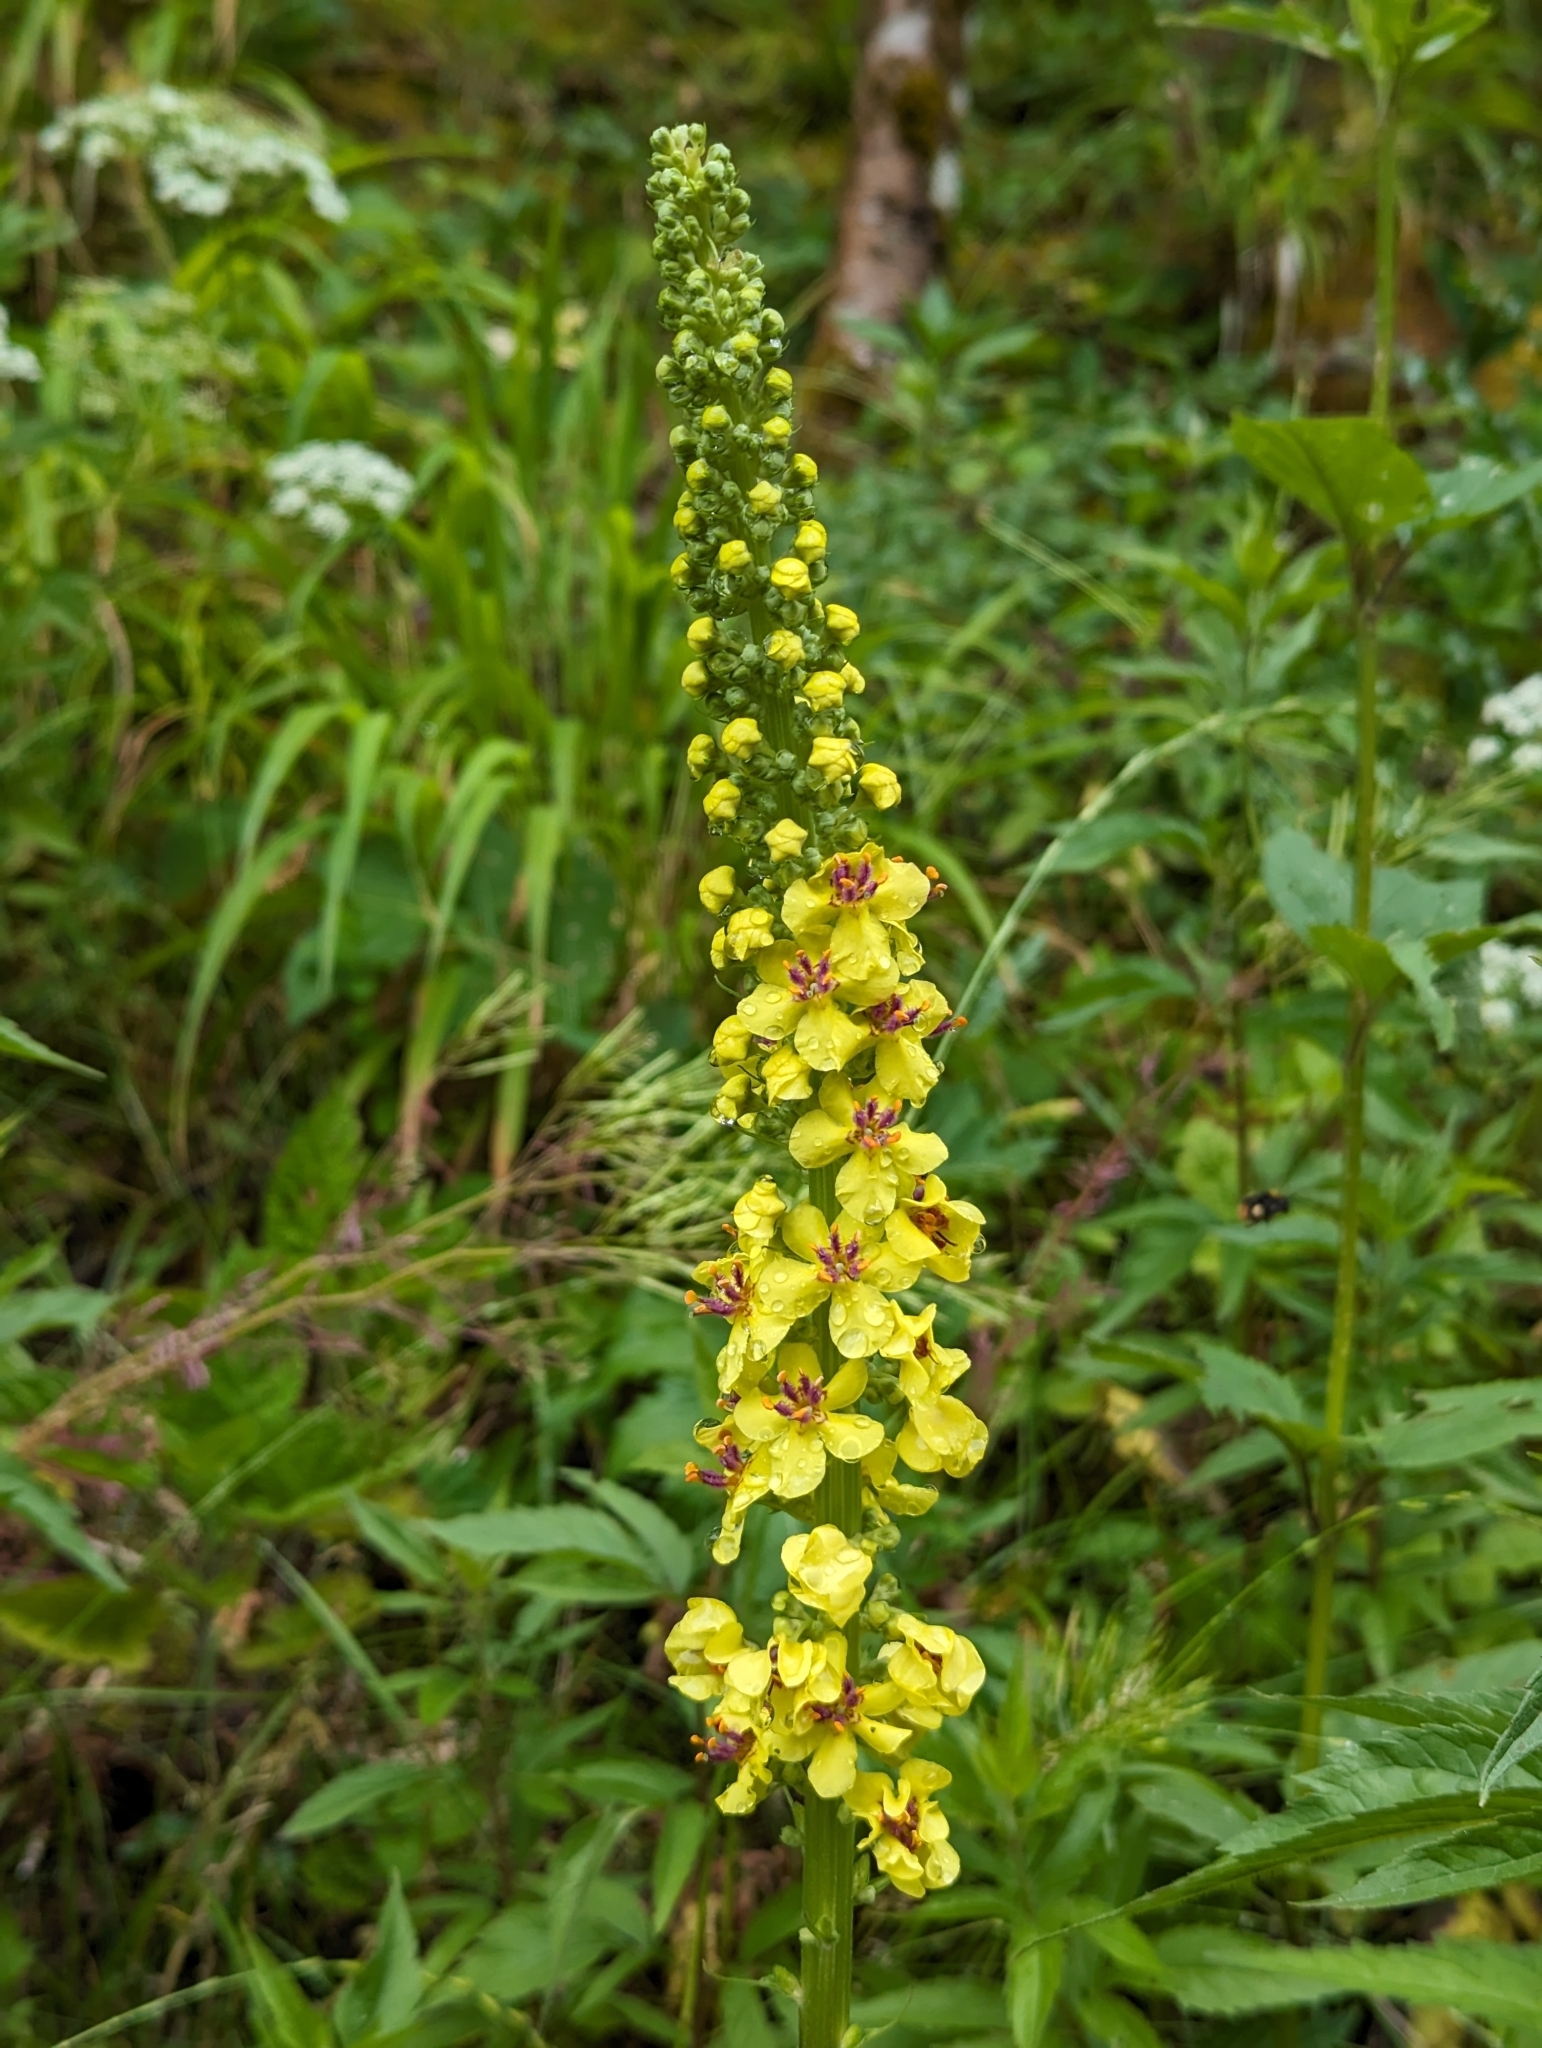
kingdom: Plantae
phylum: Tracheophyta
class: Magnoliopsida
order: Lamiales
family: Scrophulariaceae
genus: Verbascum
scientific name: Verbascum nigrum
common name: Dark mullein
